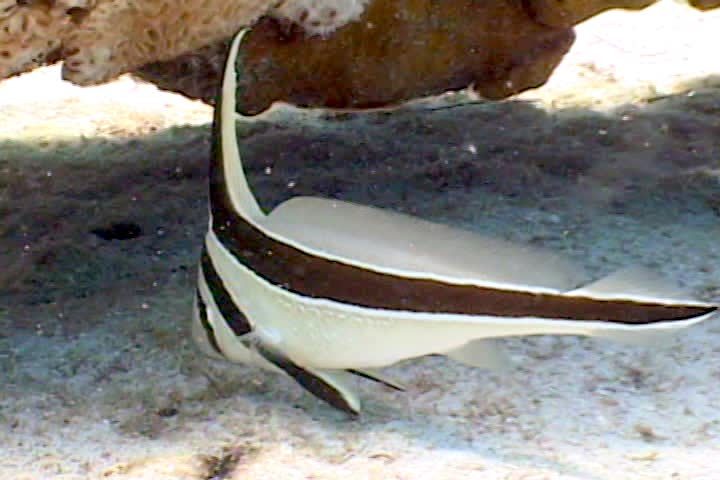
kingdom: Animalia
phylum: Chordata
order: Perciformes
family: Sciaenidae
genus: Equetus
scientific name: Equetus lanceolatus
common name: Jackknife fish
